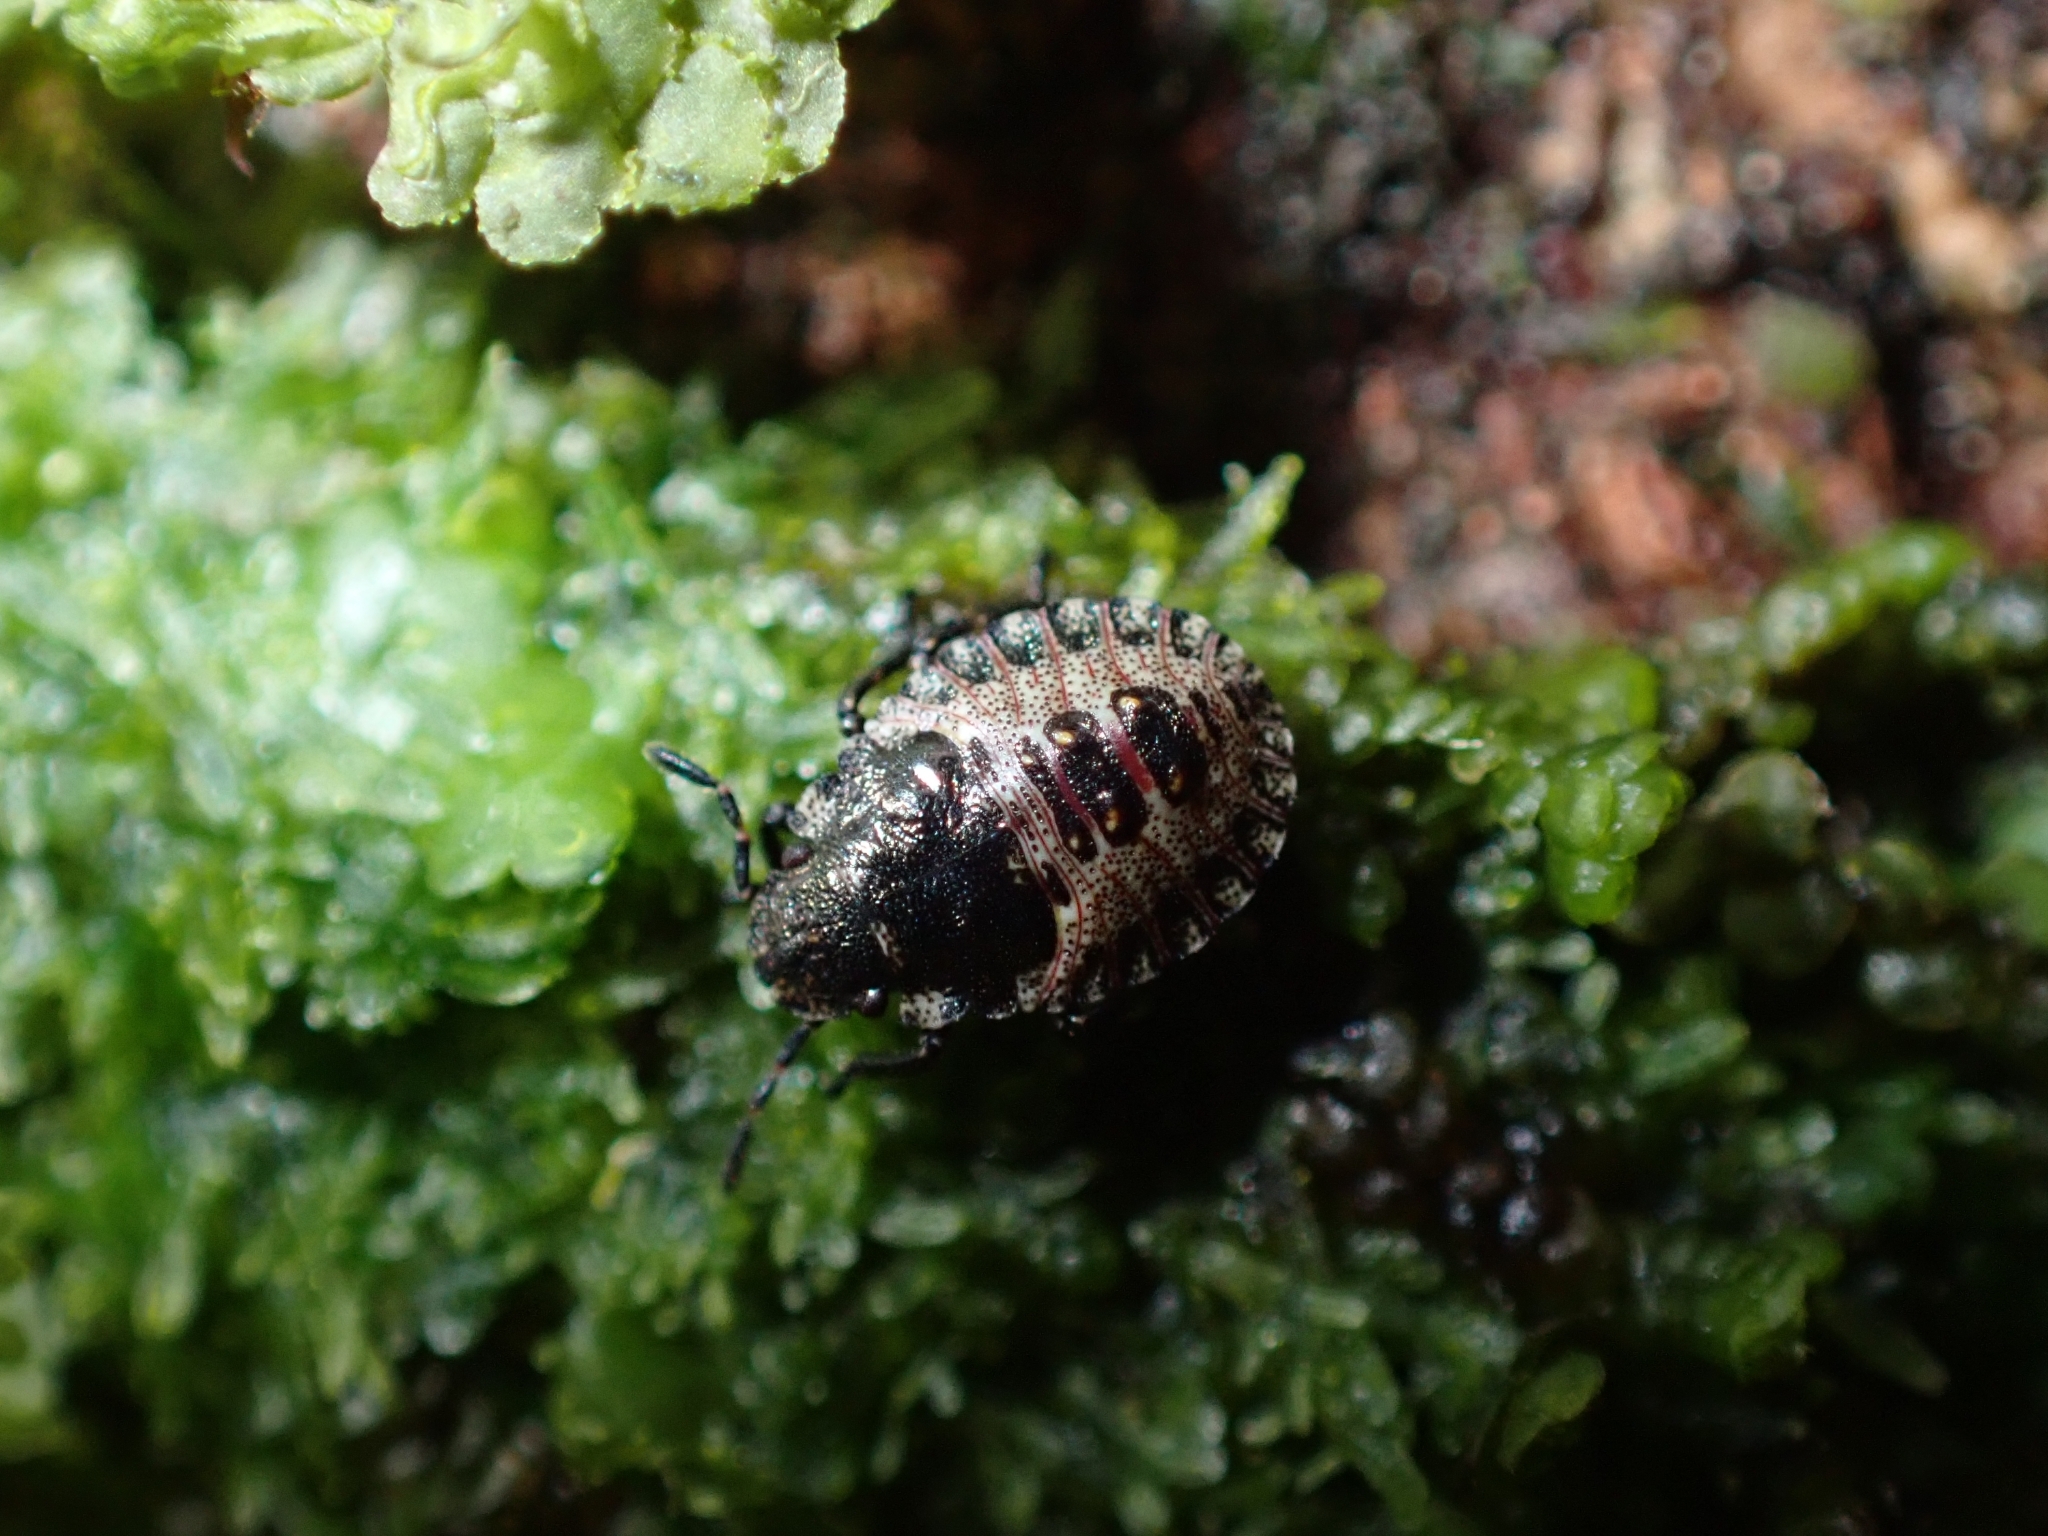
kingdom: Animalia
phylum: Arthropoda
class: Insecta
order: Hemiptera
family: Pentatomidae
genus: Pentatoma
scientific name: Pentatoma rufipes
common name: Forest bug
